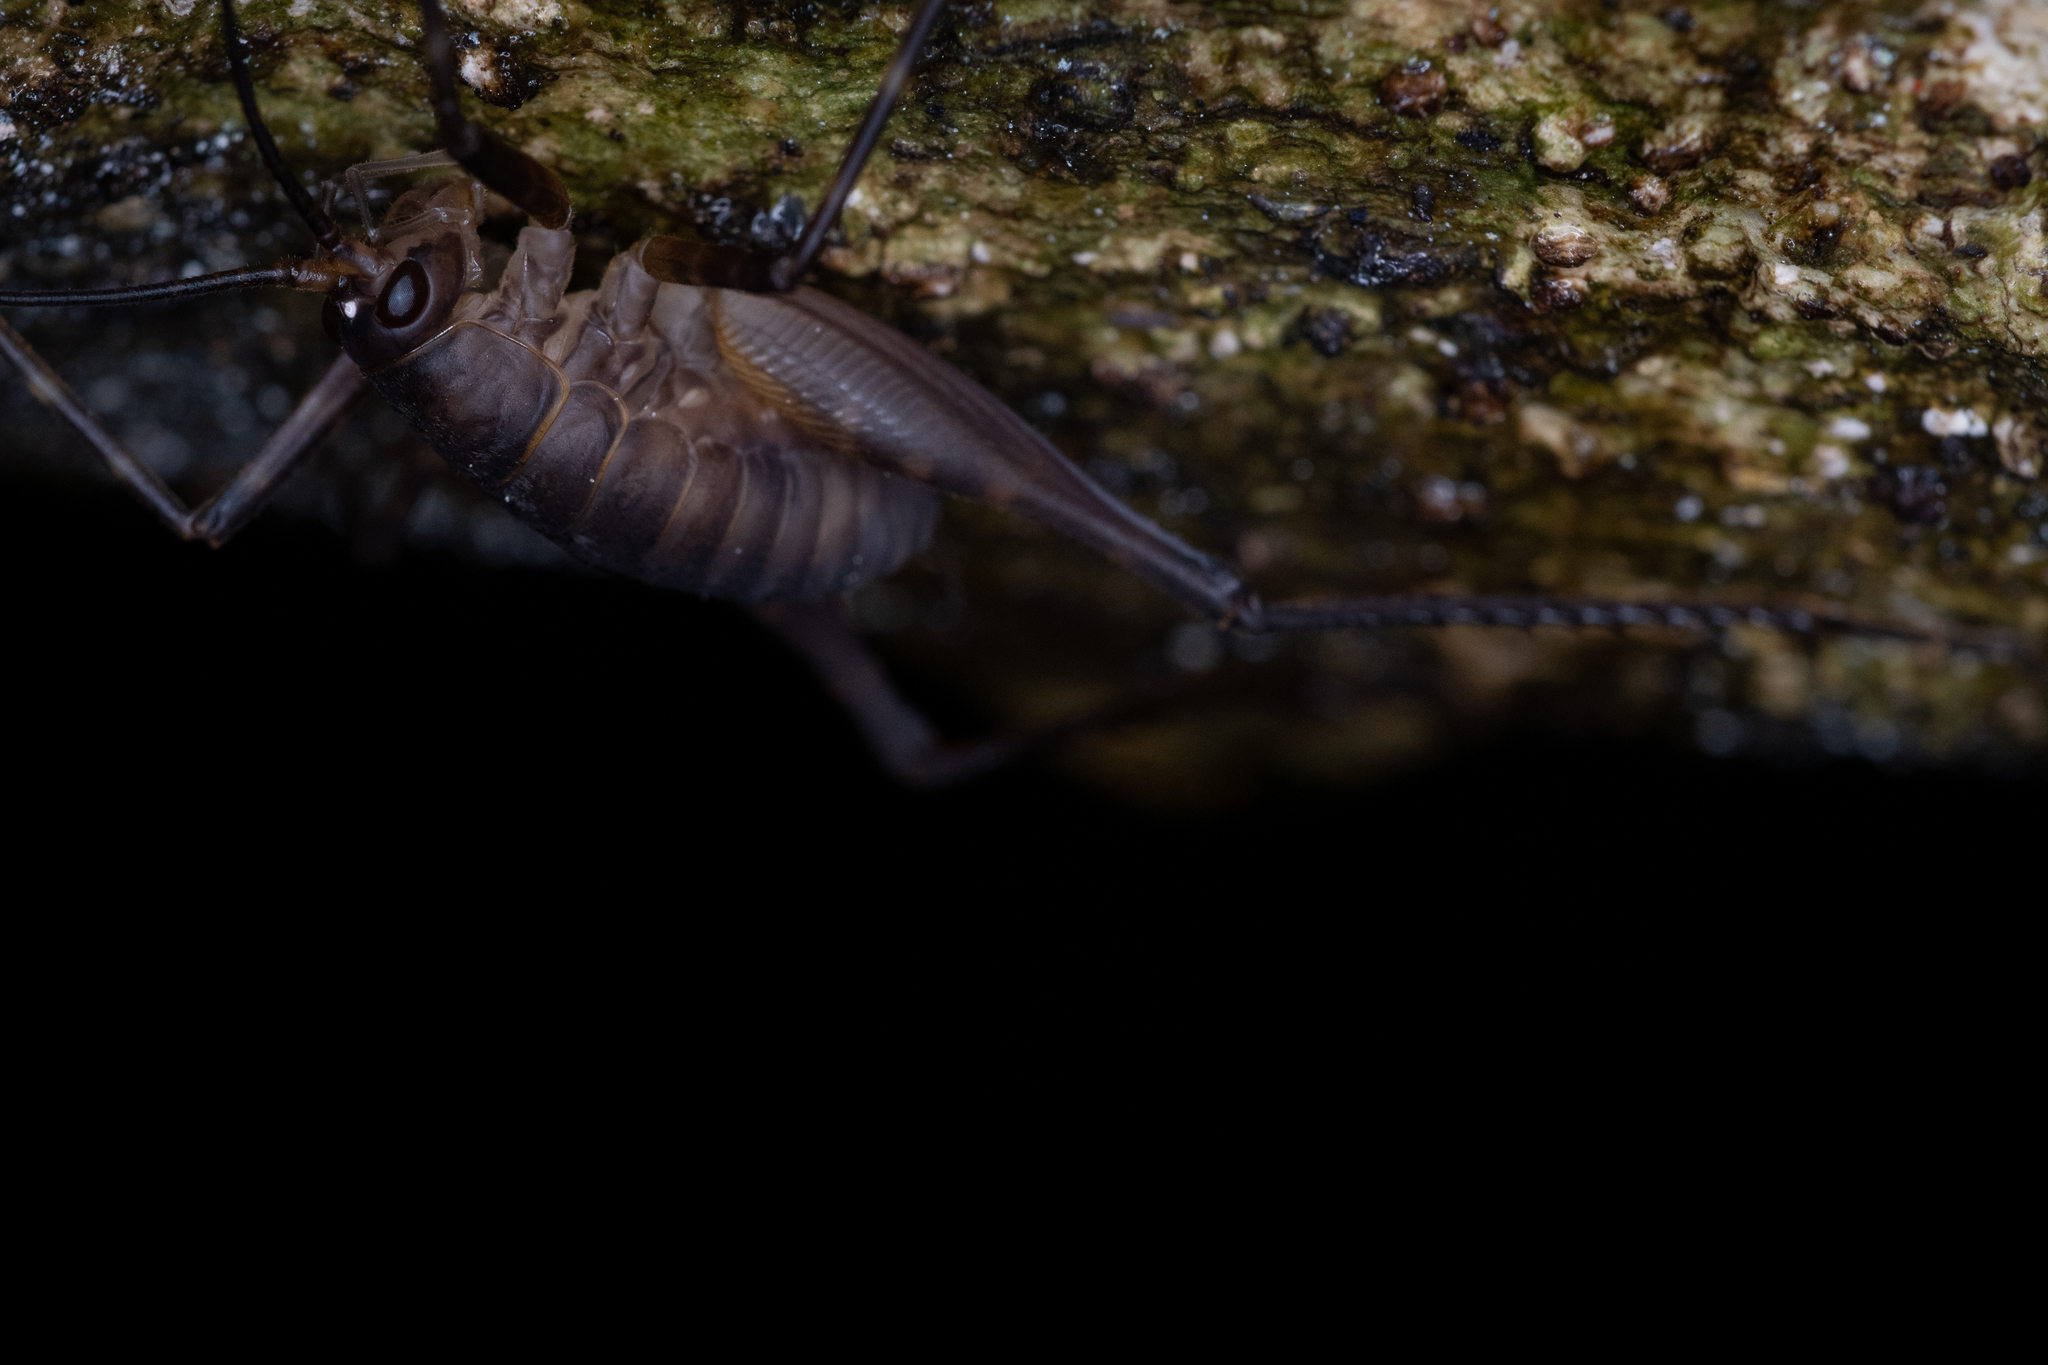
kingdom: Animalia
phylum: Arthropoda
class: Insecta
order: Orthoptera
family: Rhaphidophoridae
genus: Pachyrhamma
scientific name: Pachyrhamma longipes
